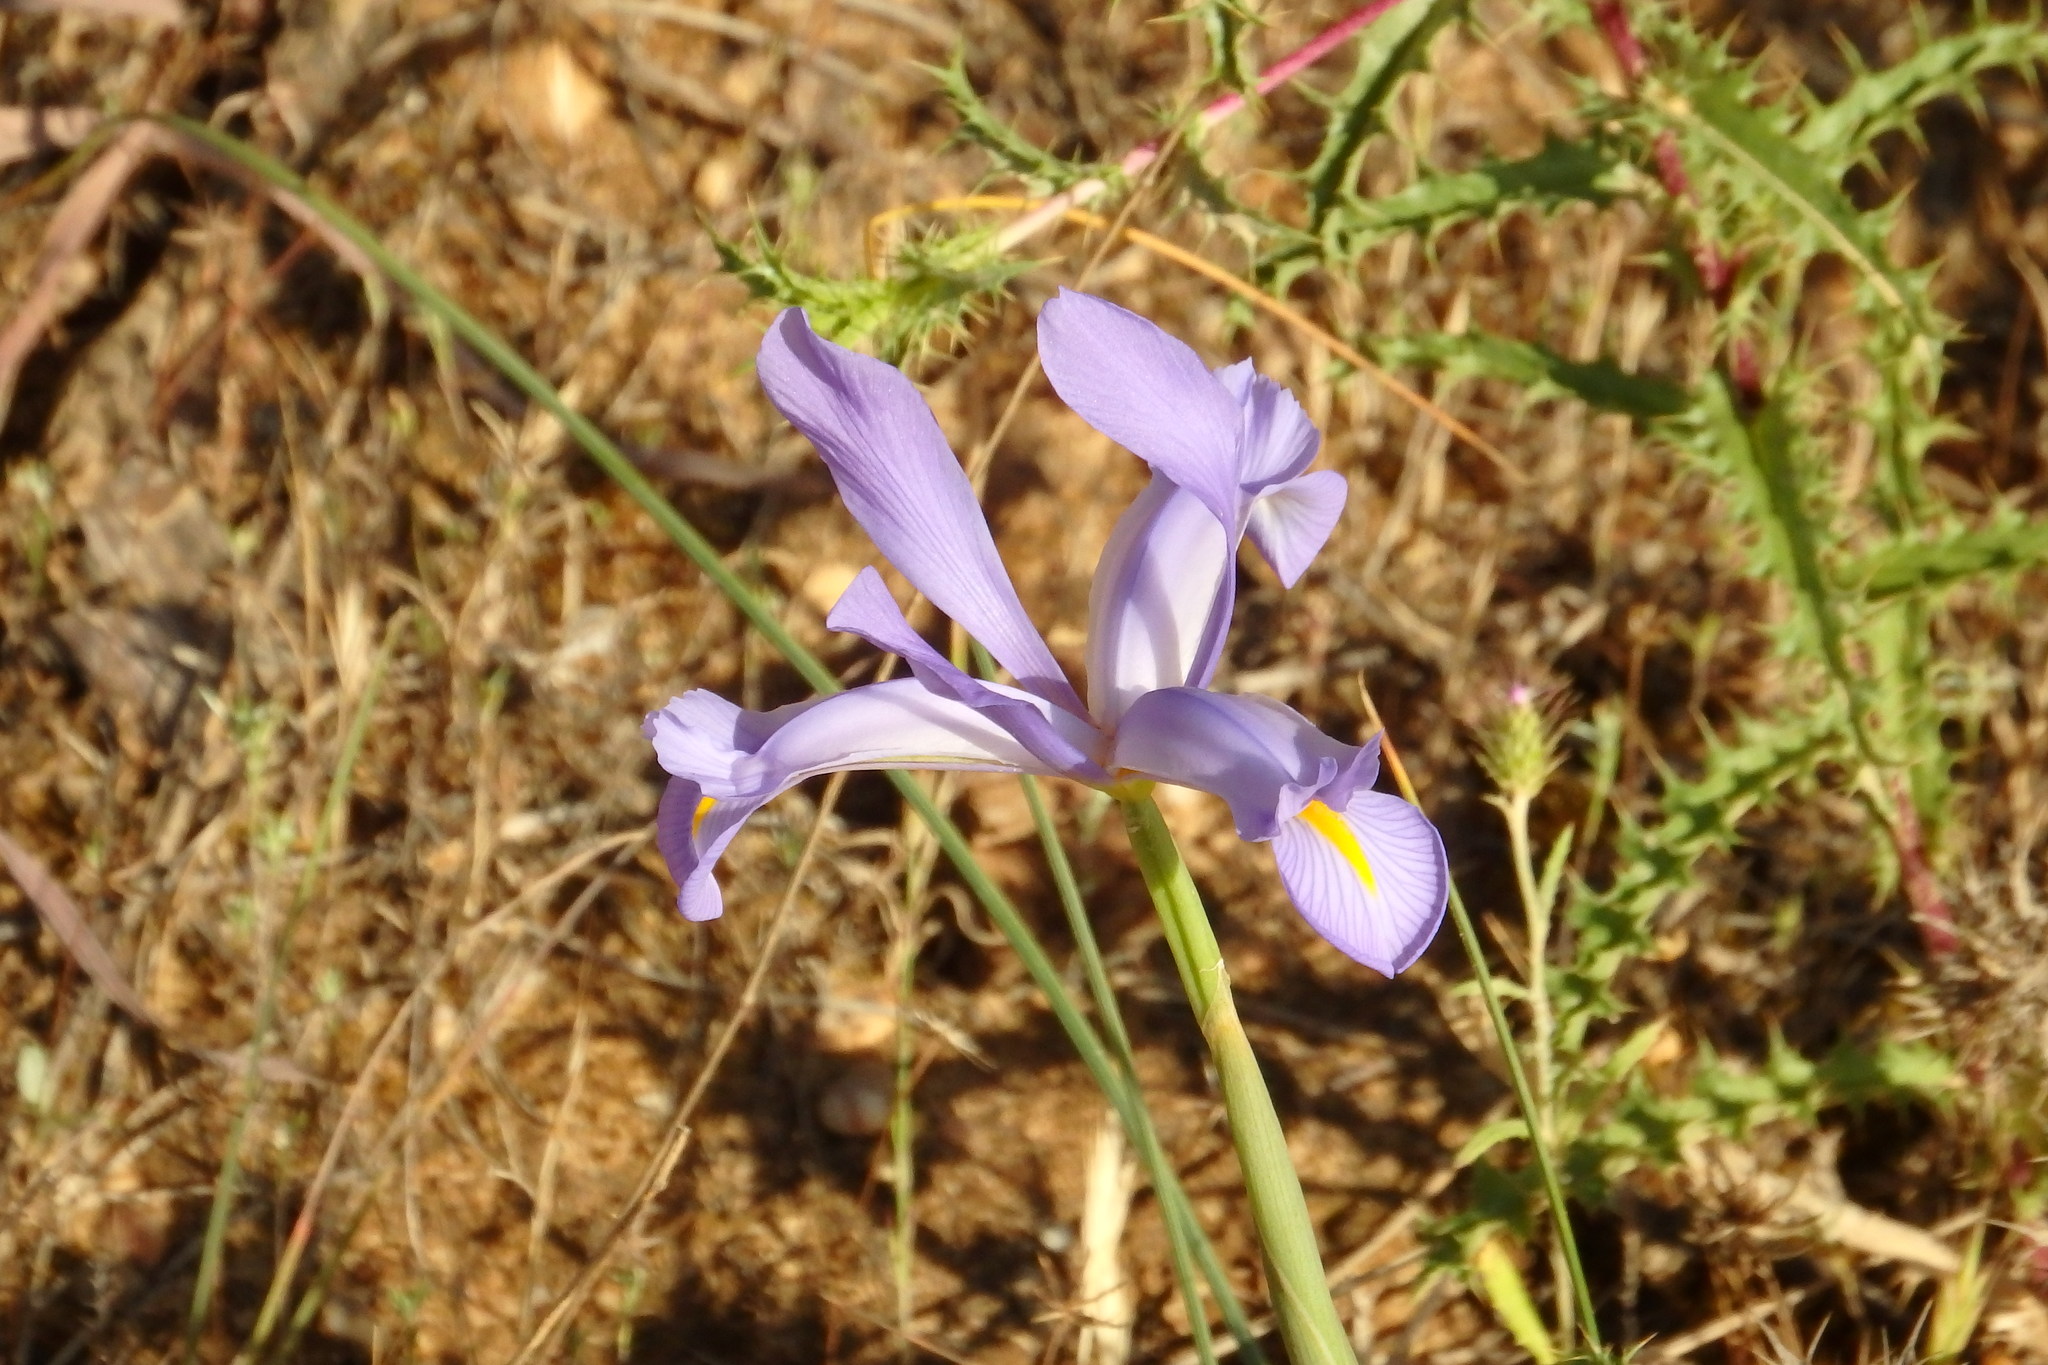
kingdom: Plantae
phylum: Tracheophyta
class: Liliopsida
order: Asparagales
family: Iridaceae
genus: Iris
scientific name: Iris xiphium
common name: Spanish iris
